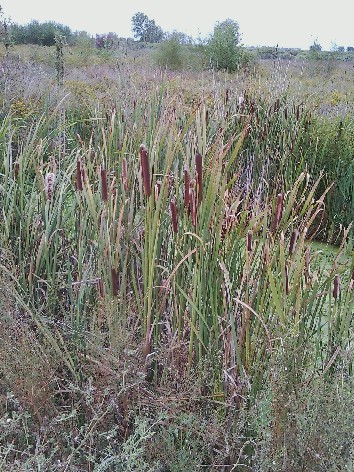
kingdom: Plantae
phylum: Tracheophyta
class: Liliopsida
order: Poales
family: Typhaceae
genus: Typha
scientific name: Typha latifolia
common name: Broadleaf cattail
